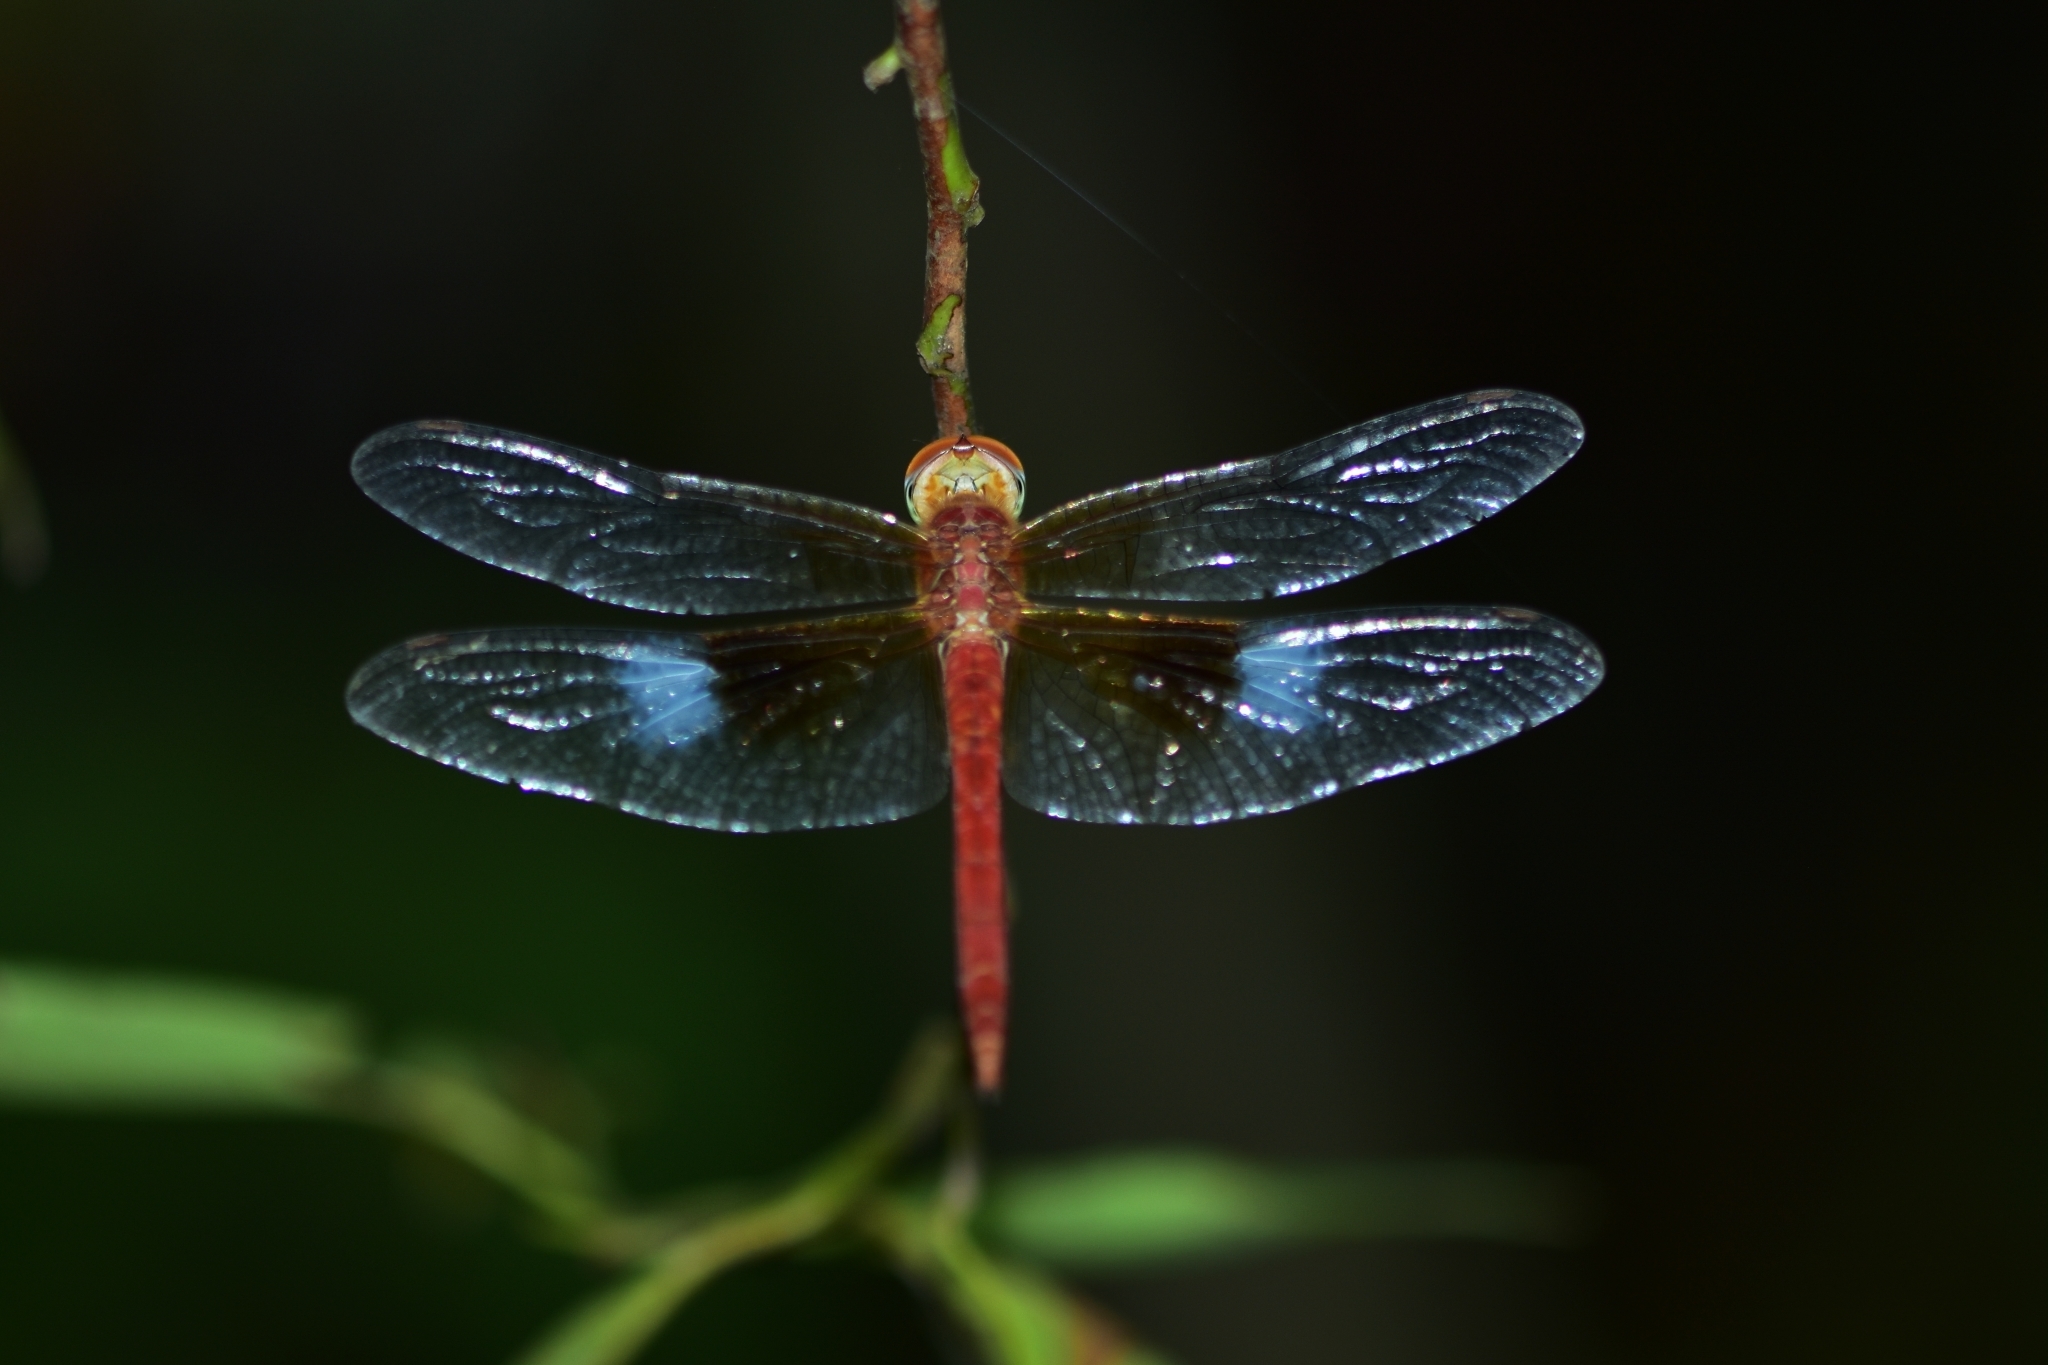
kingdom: Animalia
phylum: Arthropoda
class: Insecta
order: Odonata
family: Libellulidae
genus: Tholymis
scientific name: Tholymis tillarga
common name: Coral-tailed cloud wing
